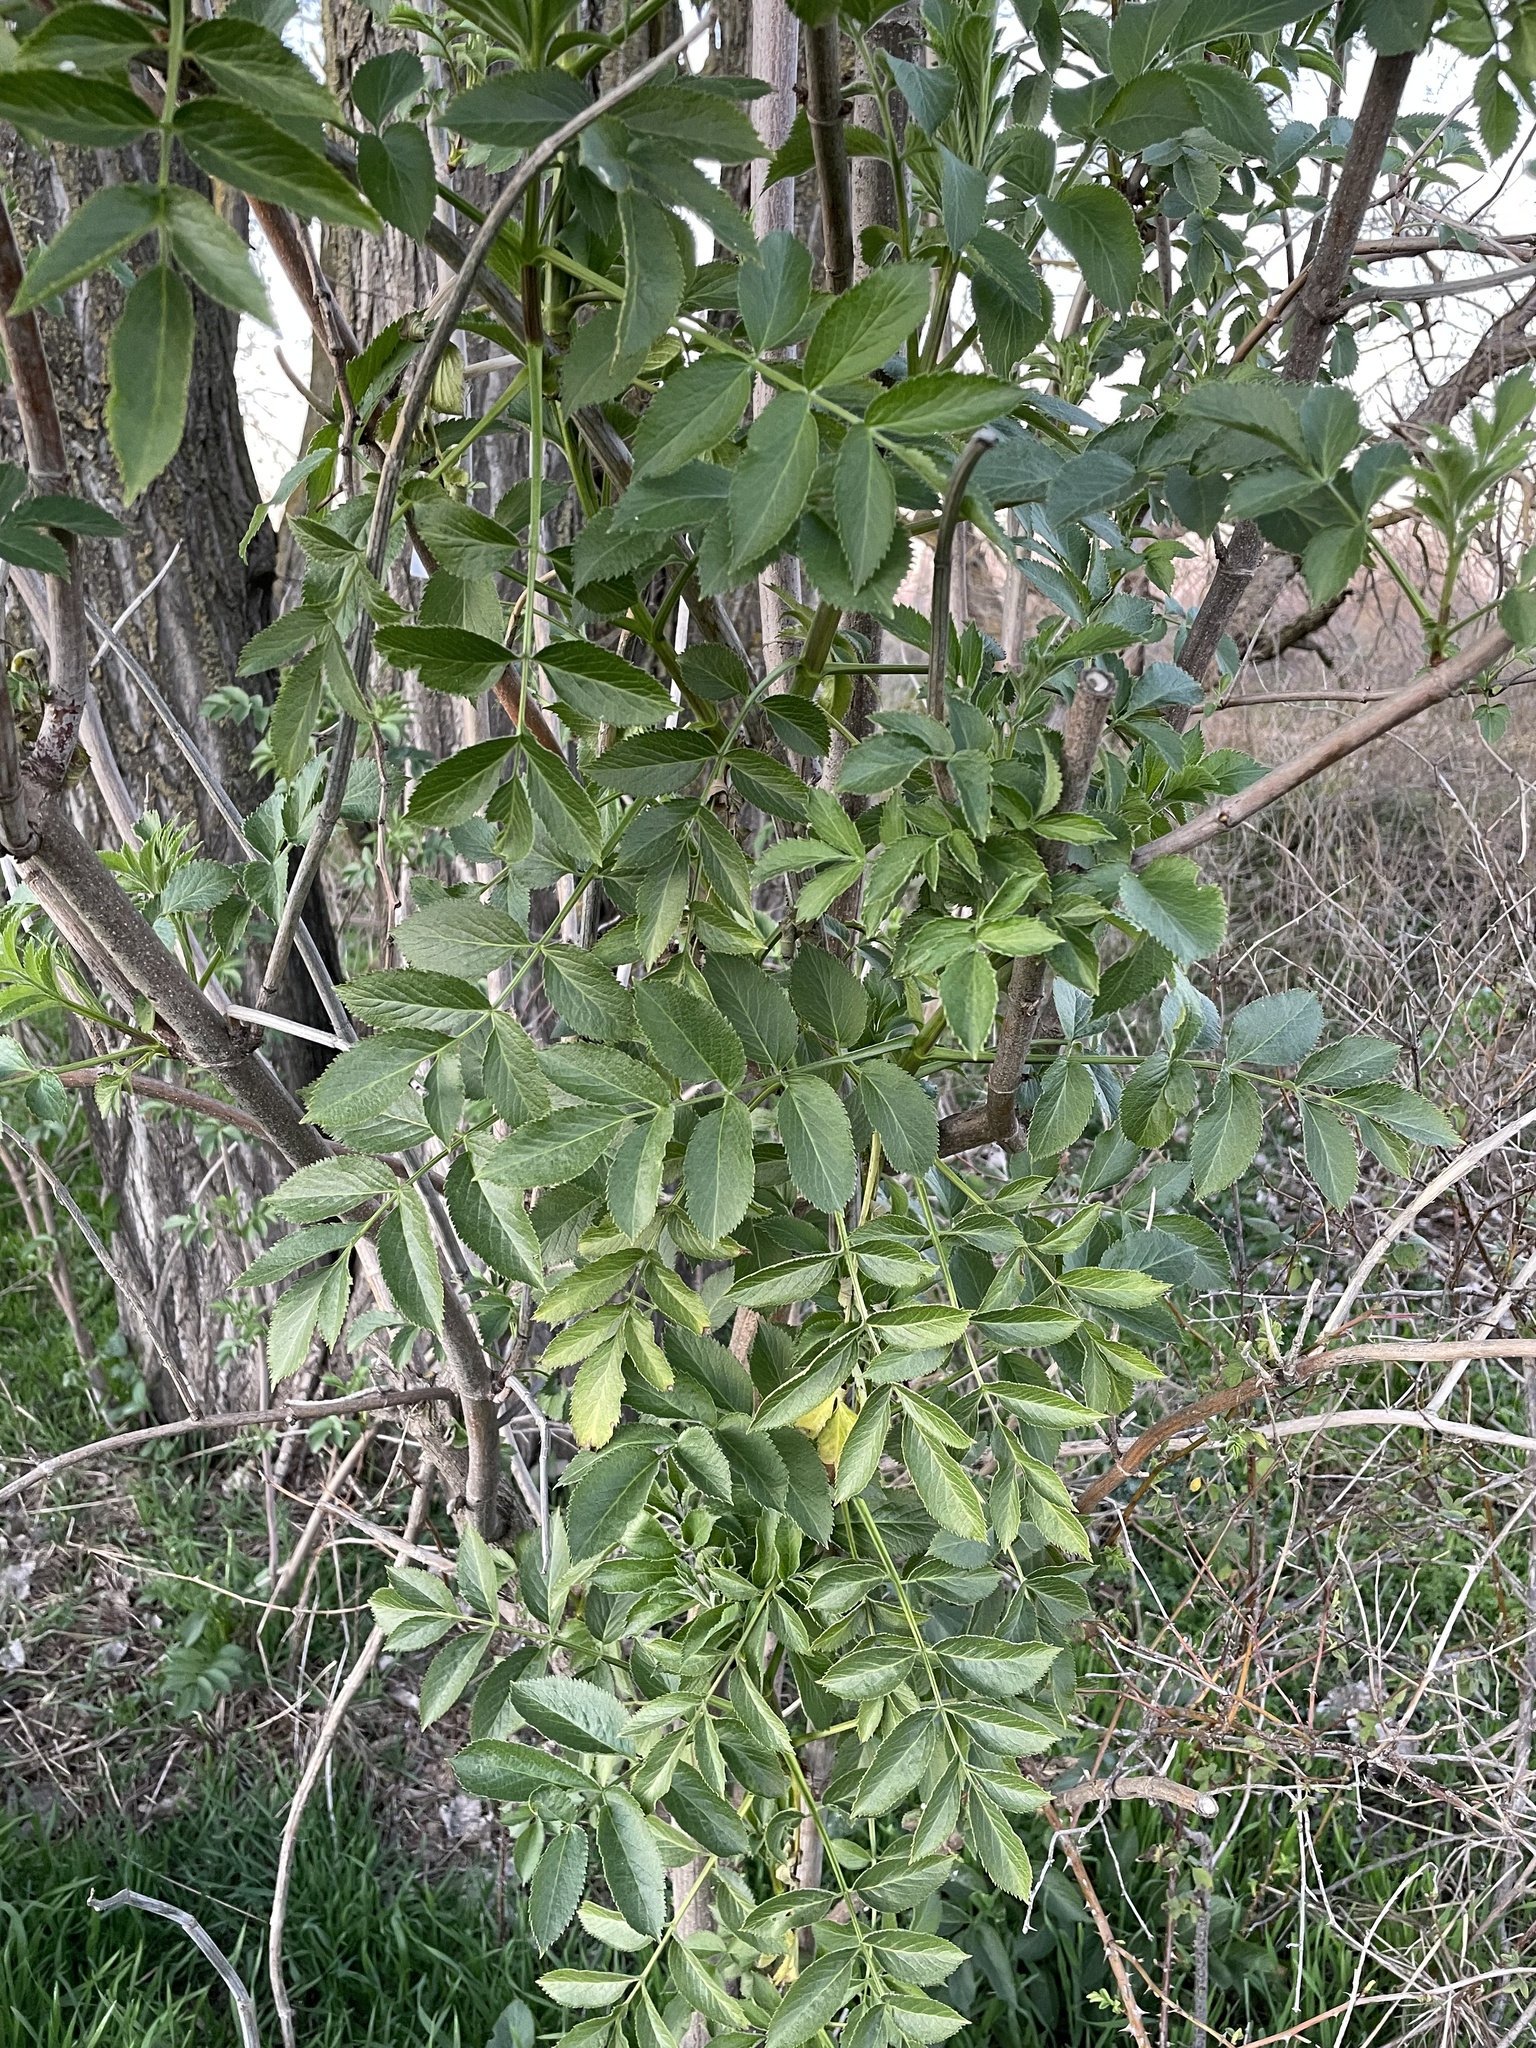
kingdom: Plantae
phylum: Tracheophyta
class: Magnoliopsida
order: Dipsacales
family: Viburnaceae
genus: Sambucus
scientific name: Sambucus cerulea
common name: Blue elder
